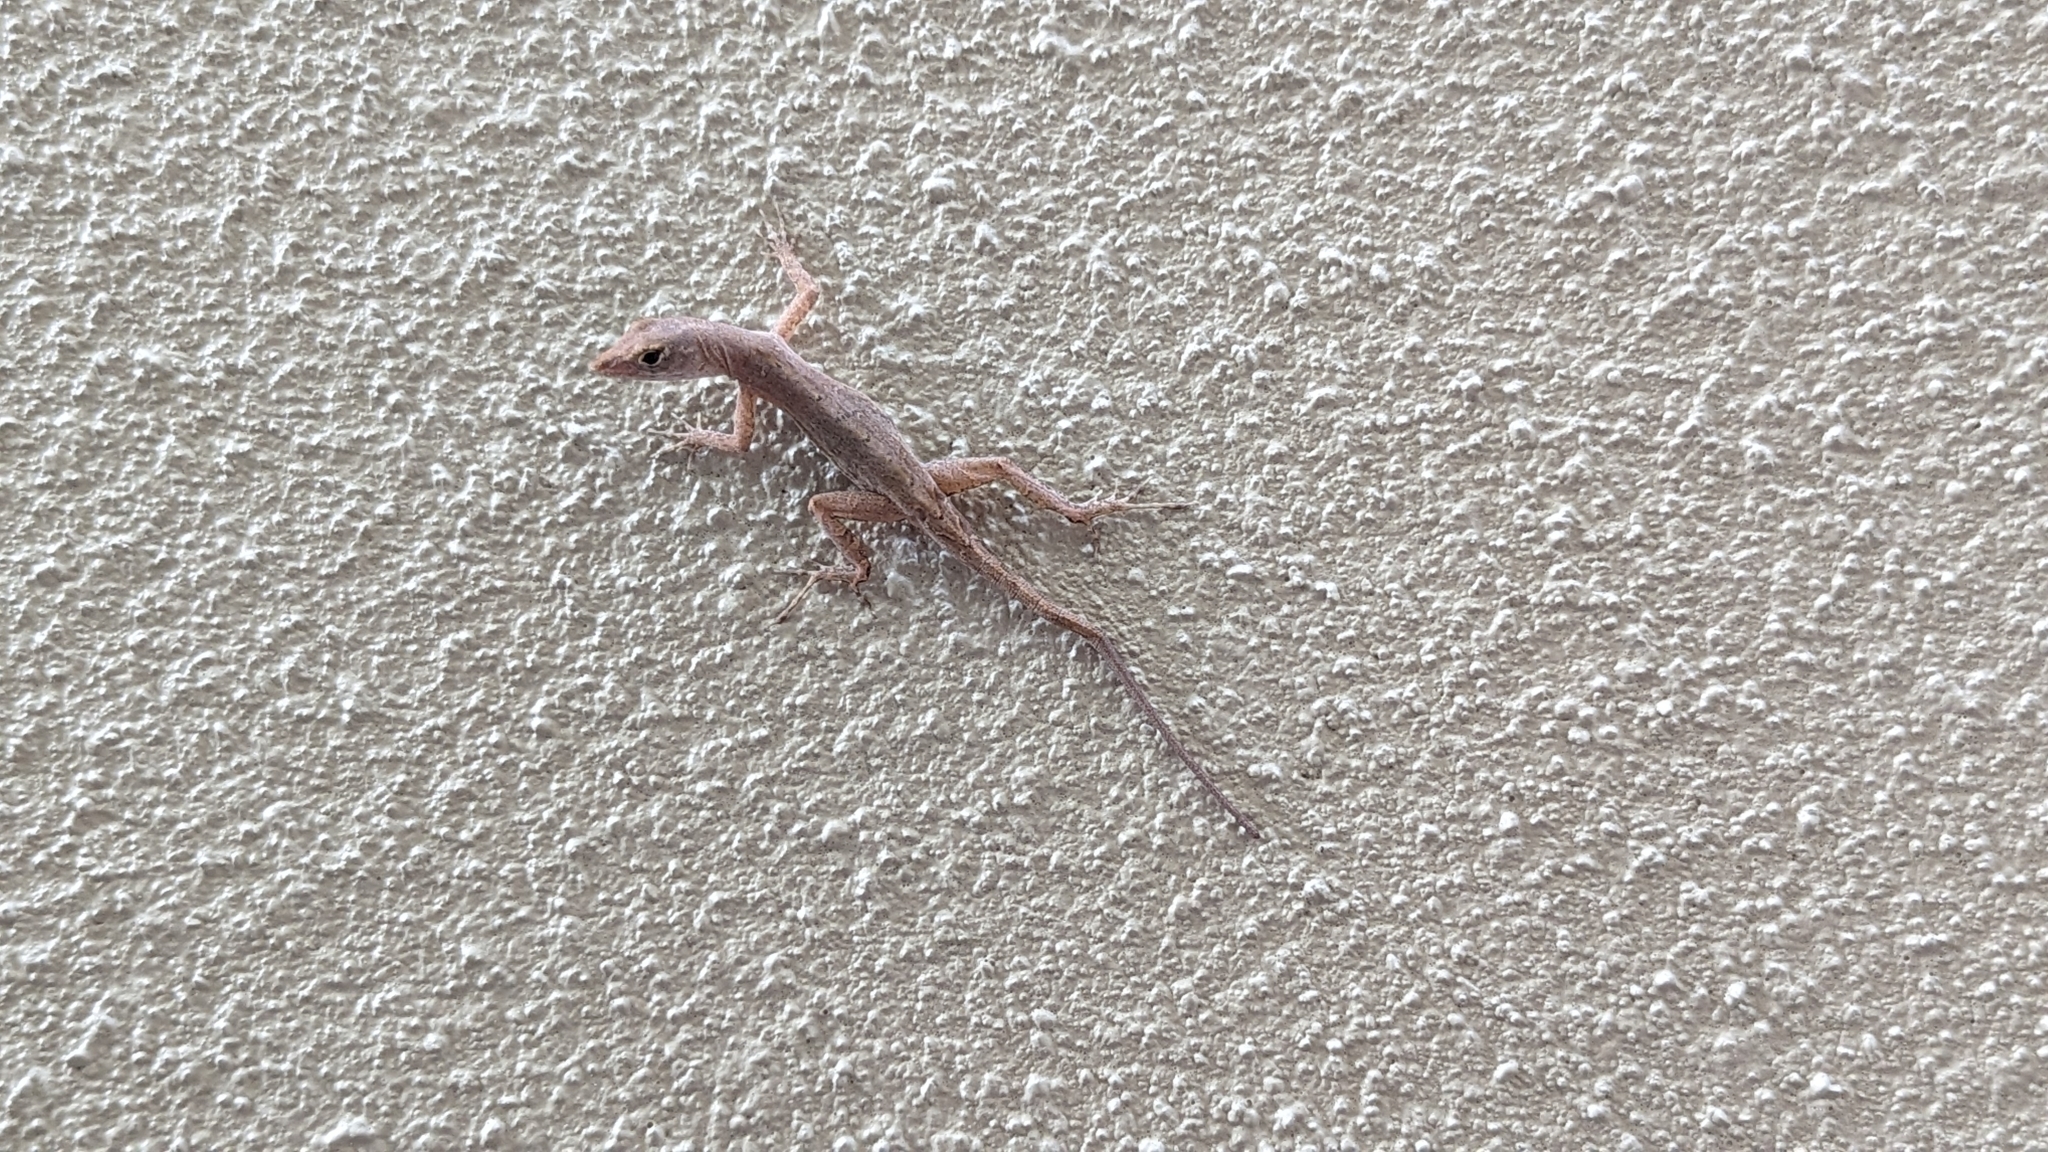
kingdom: Animalia
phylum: Chordata
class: Squamata
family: Dactyloidae
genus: Anolis
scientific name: Anolis sagrei
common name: Brown anole
